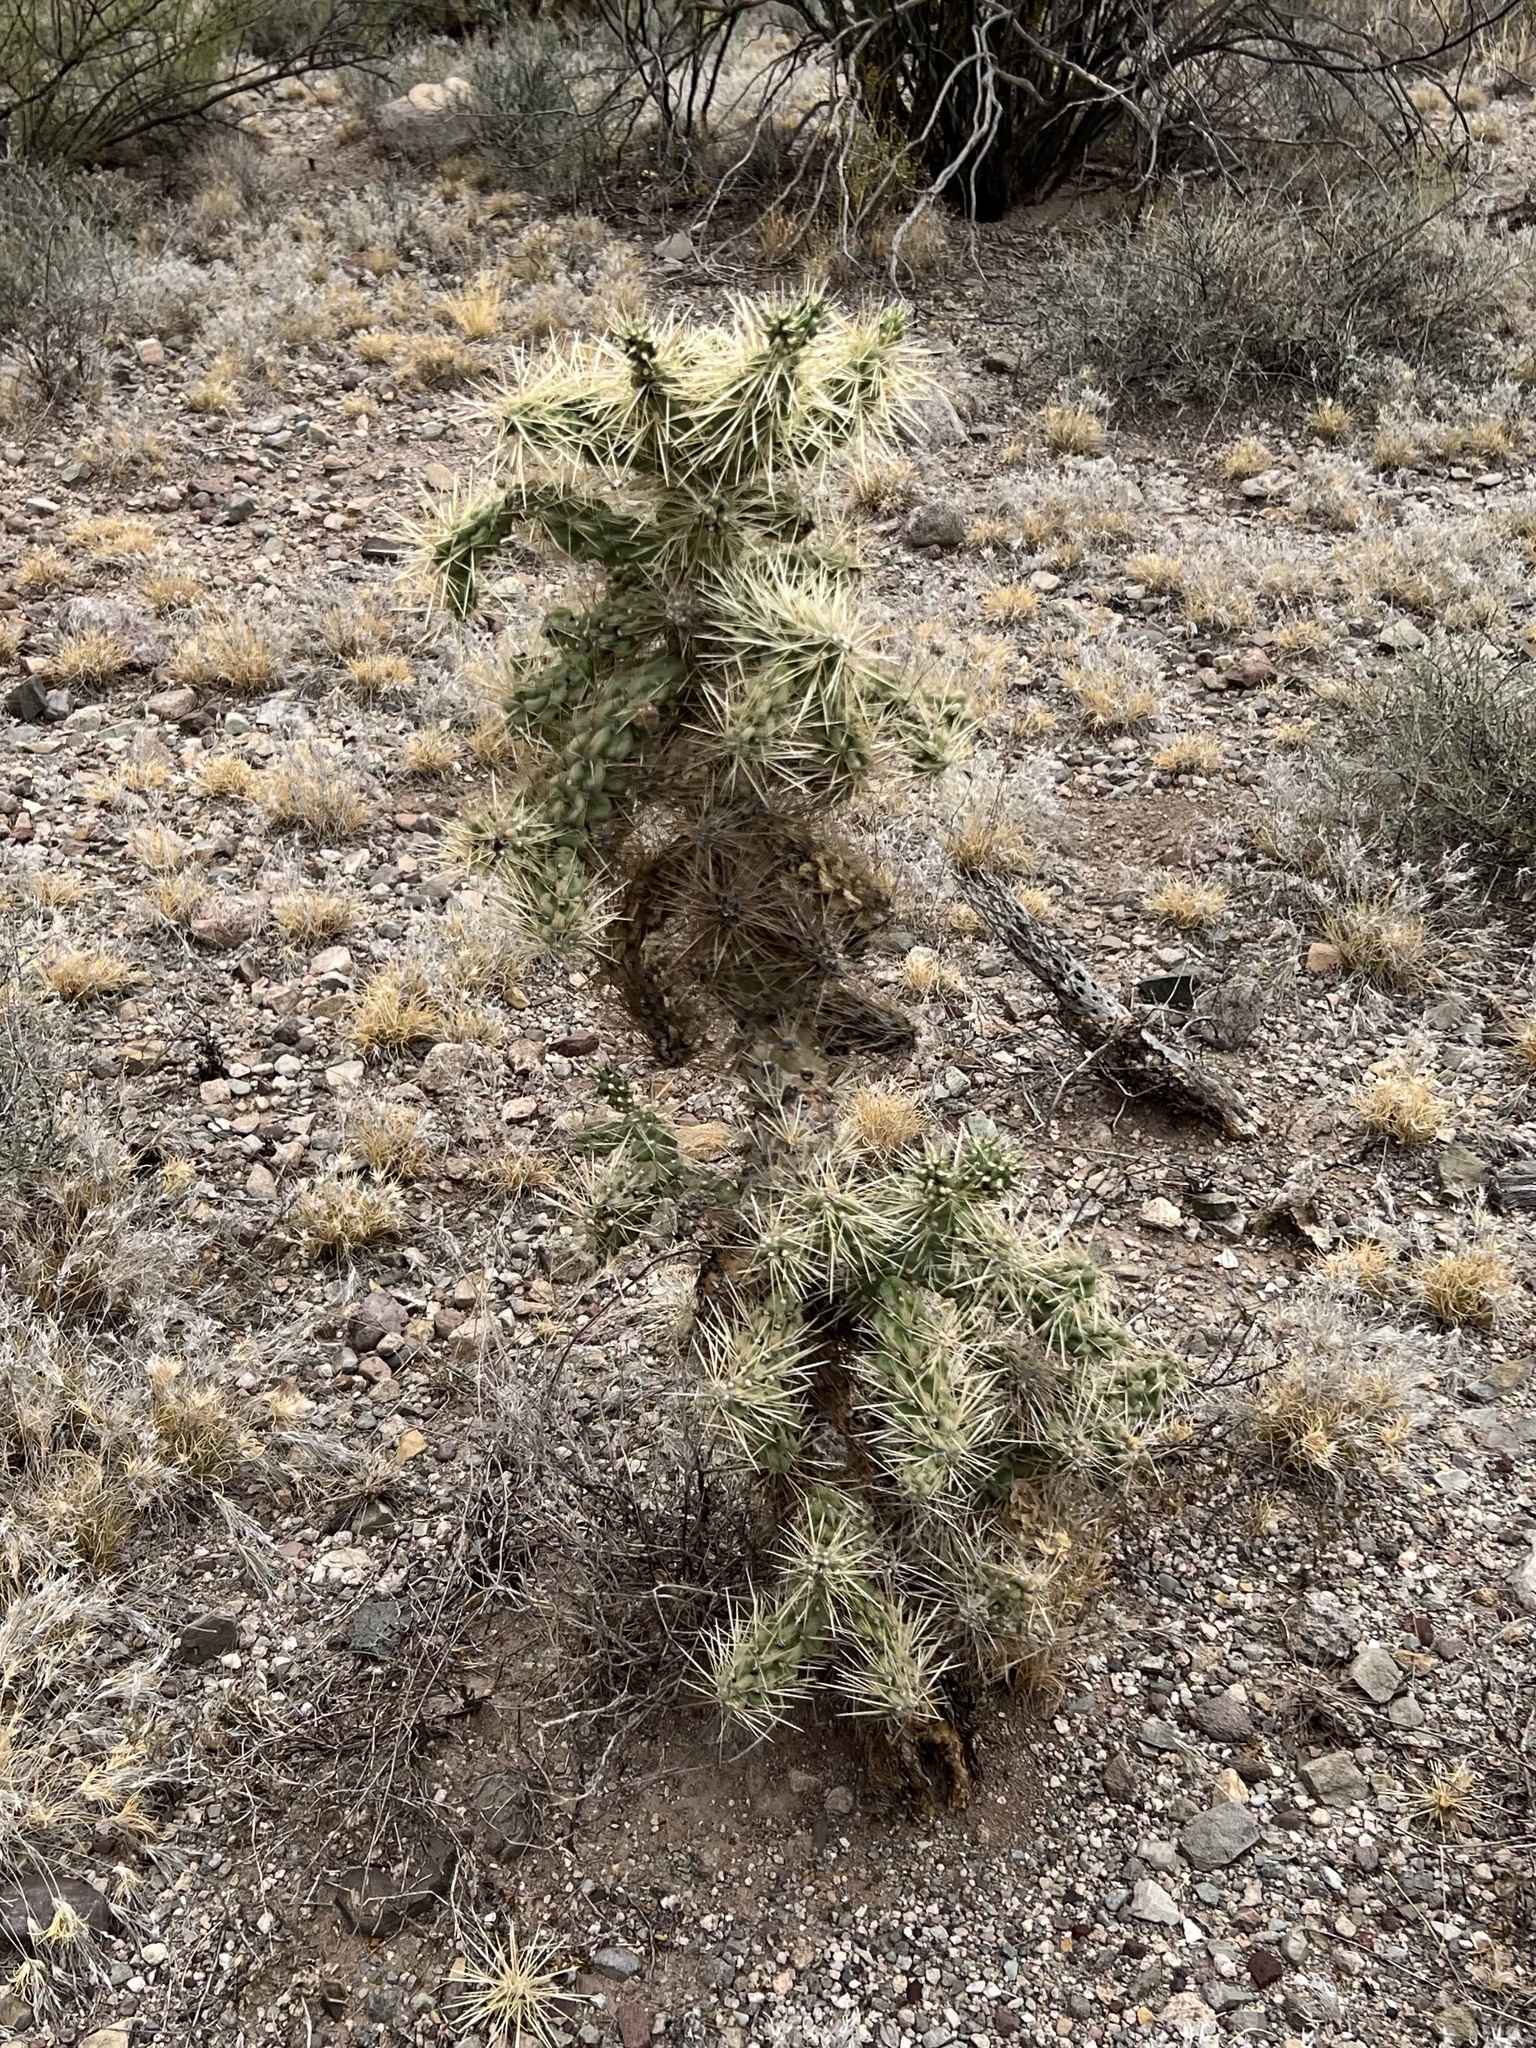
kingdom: Plantae
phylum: Tracheophyta
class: Magnoliopsida
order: Caryophyllales
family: Cactaceae
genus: Cylindropuntia
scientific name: Cylindropuntia fulgida
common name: Jumping cholla
